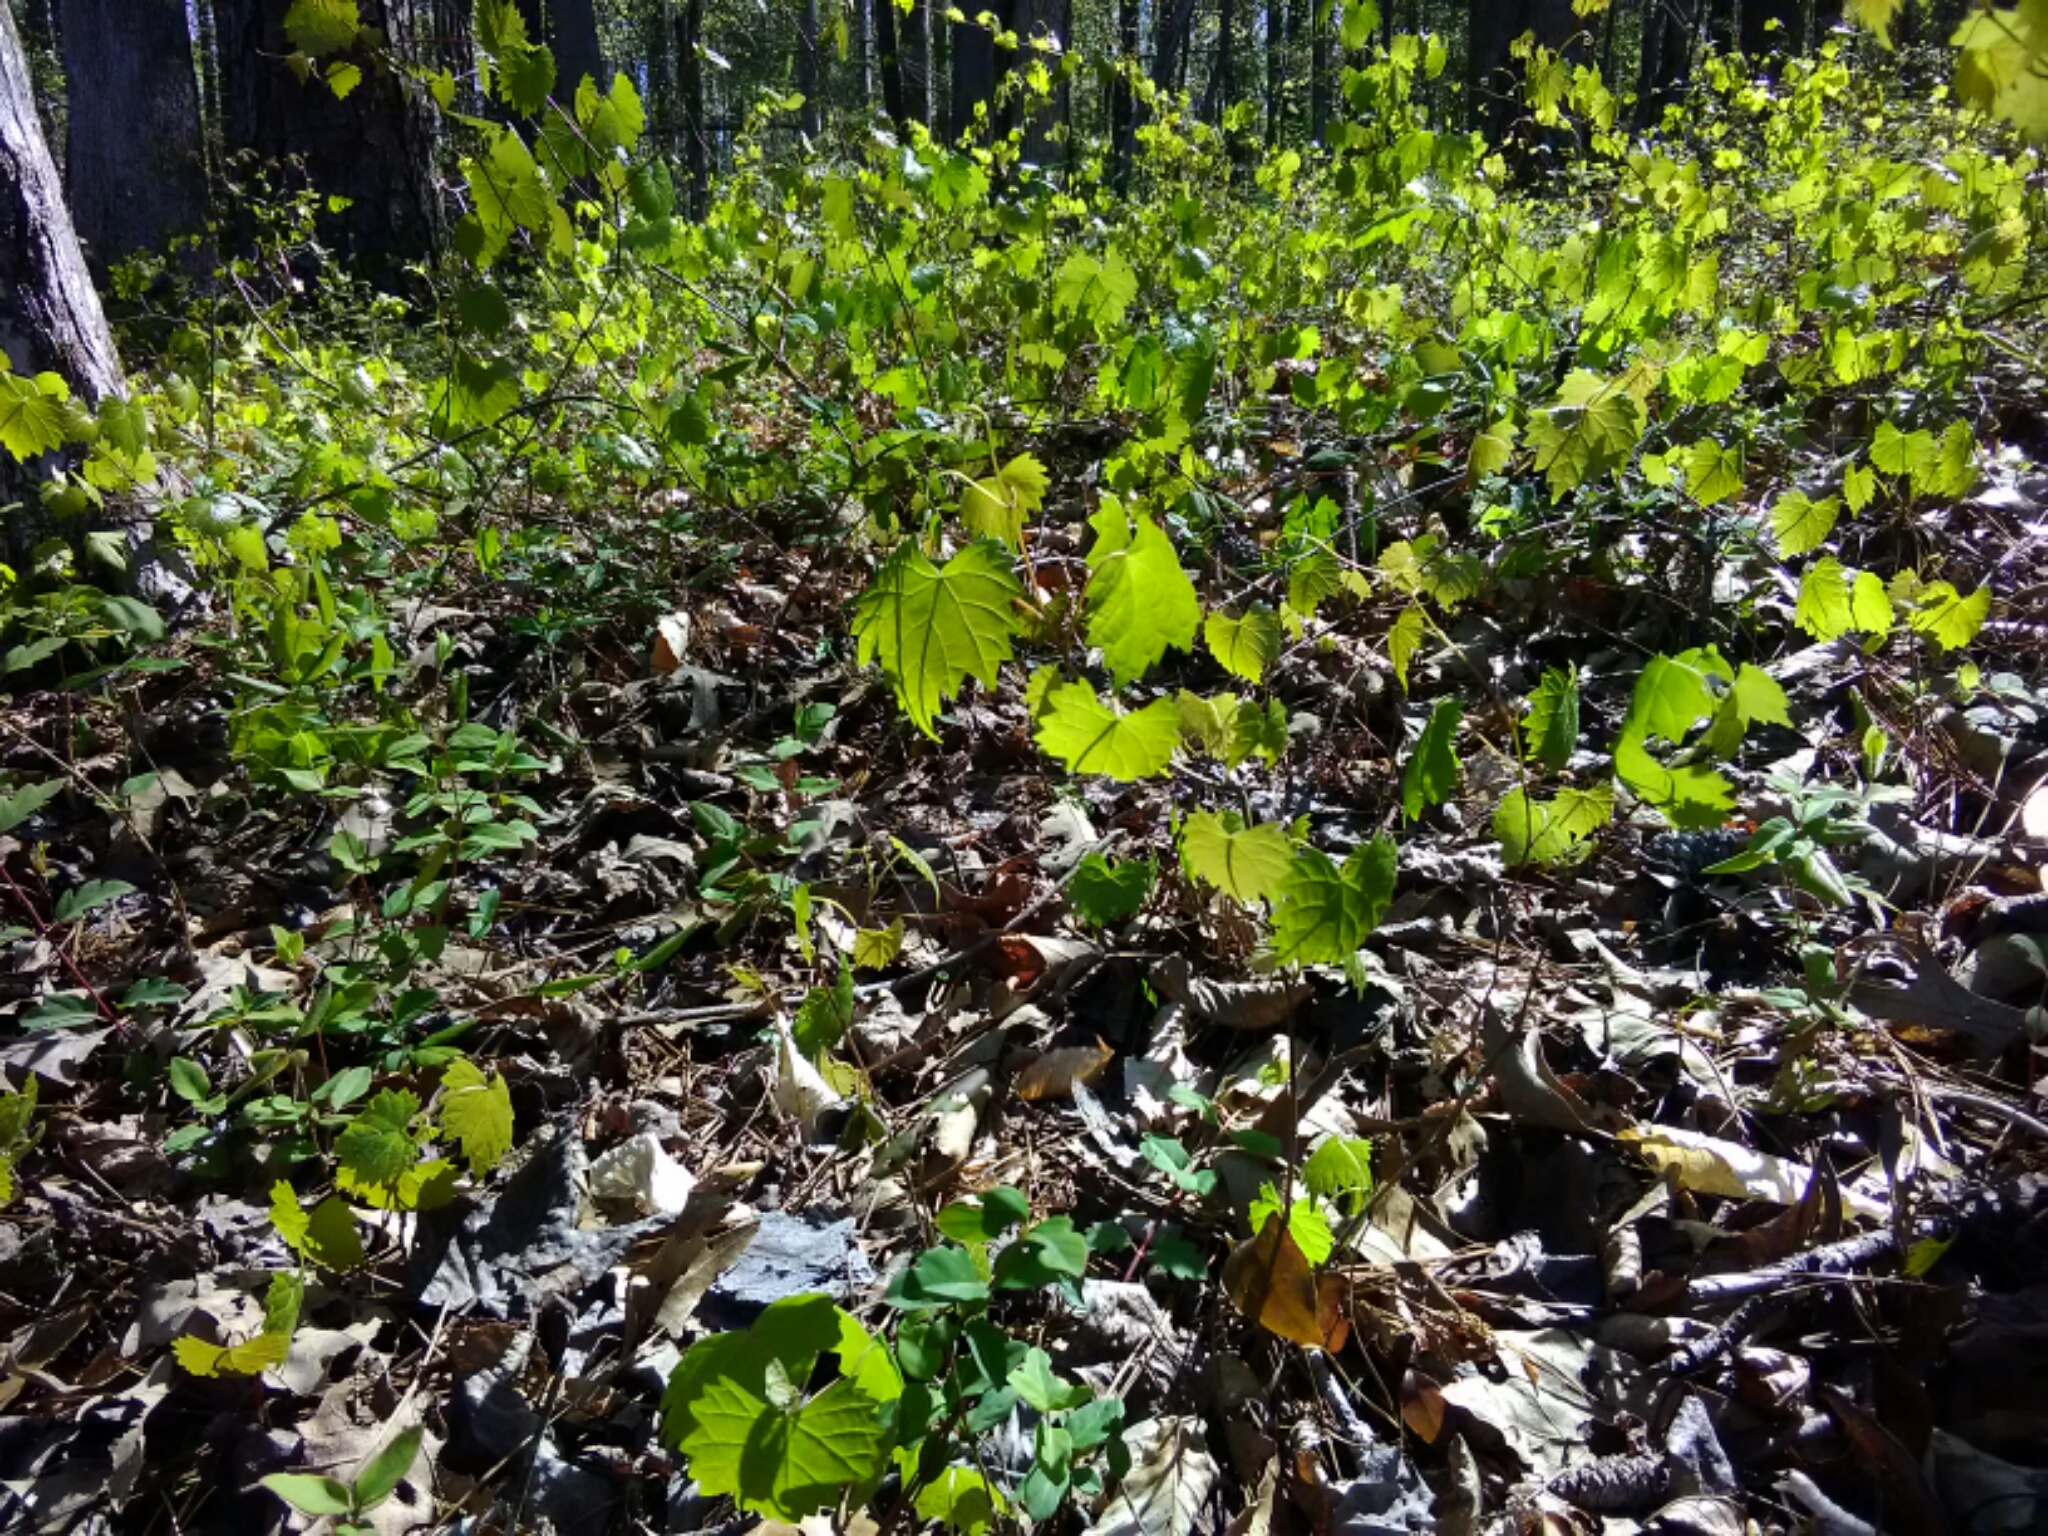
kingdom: Plantae
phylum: Tracheophyta
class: Magnoliopsida
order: Vitales
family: Vitaceae
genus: Vitis
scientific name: Vitis rotundifolia
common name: Muscadine grape
